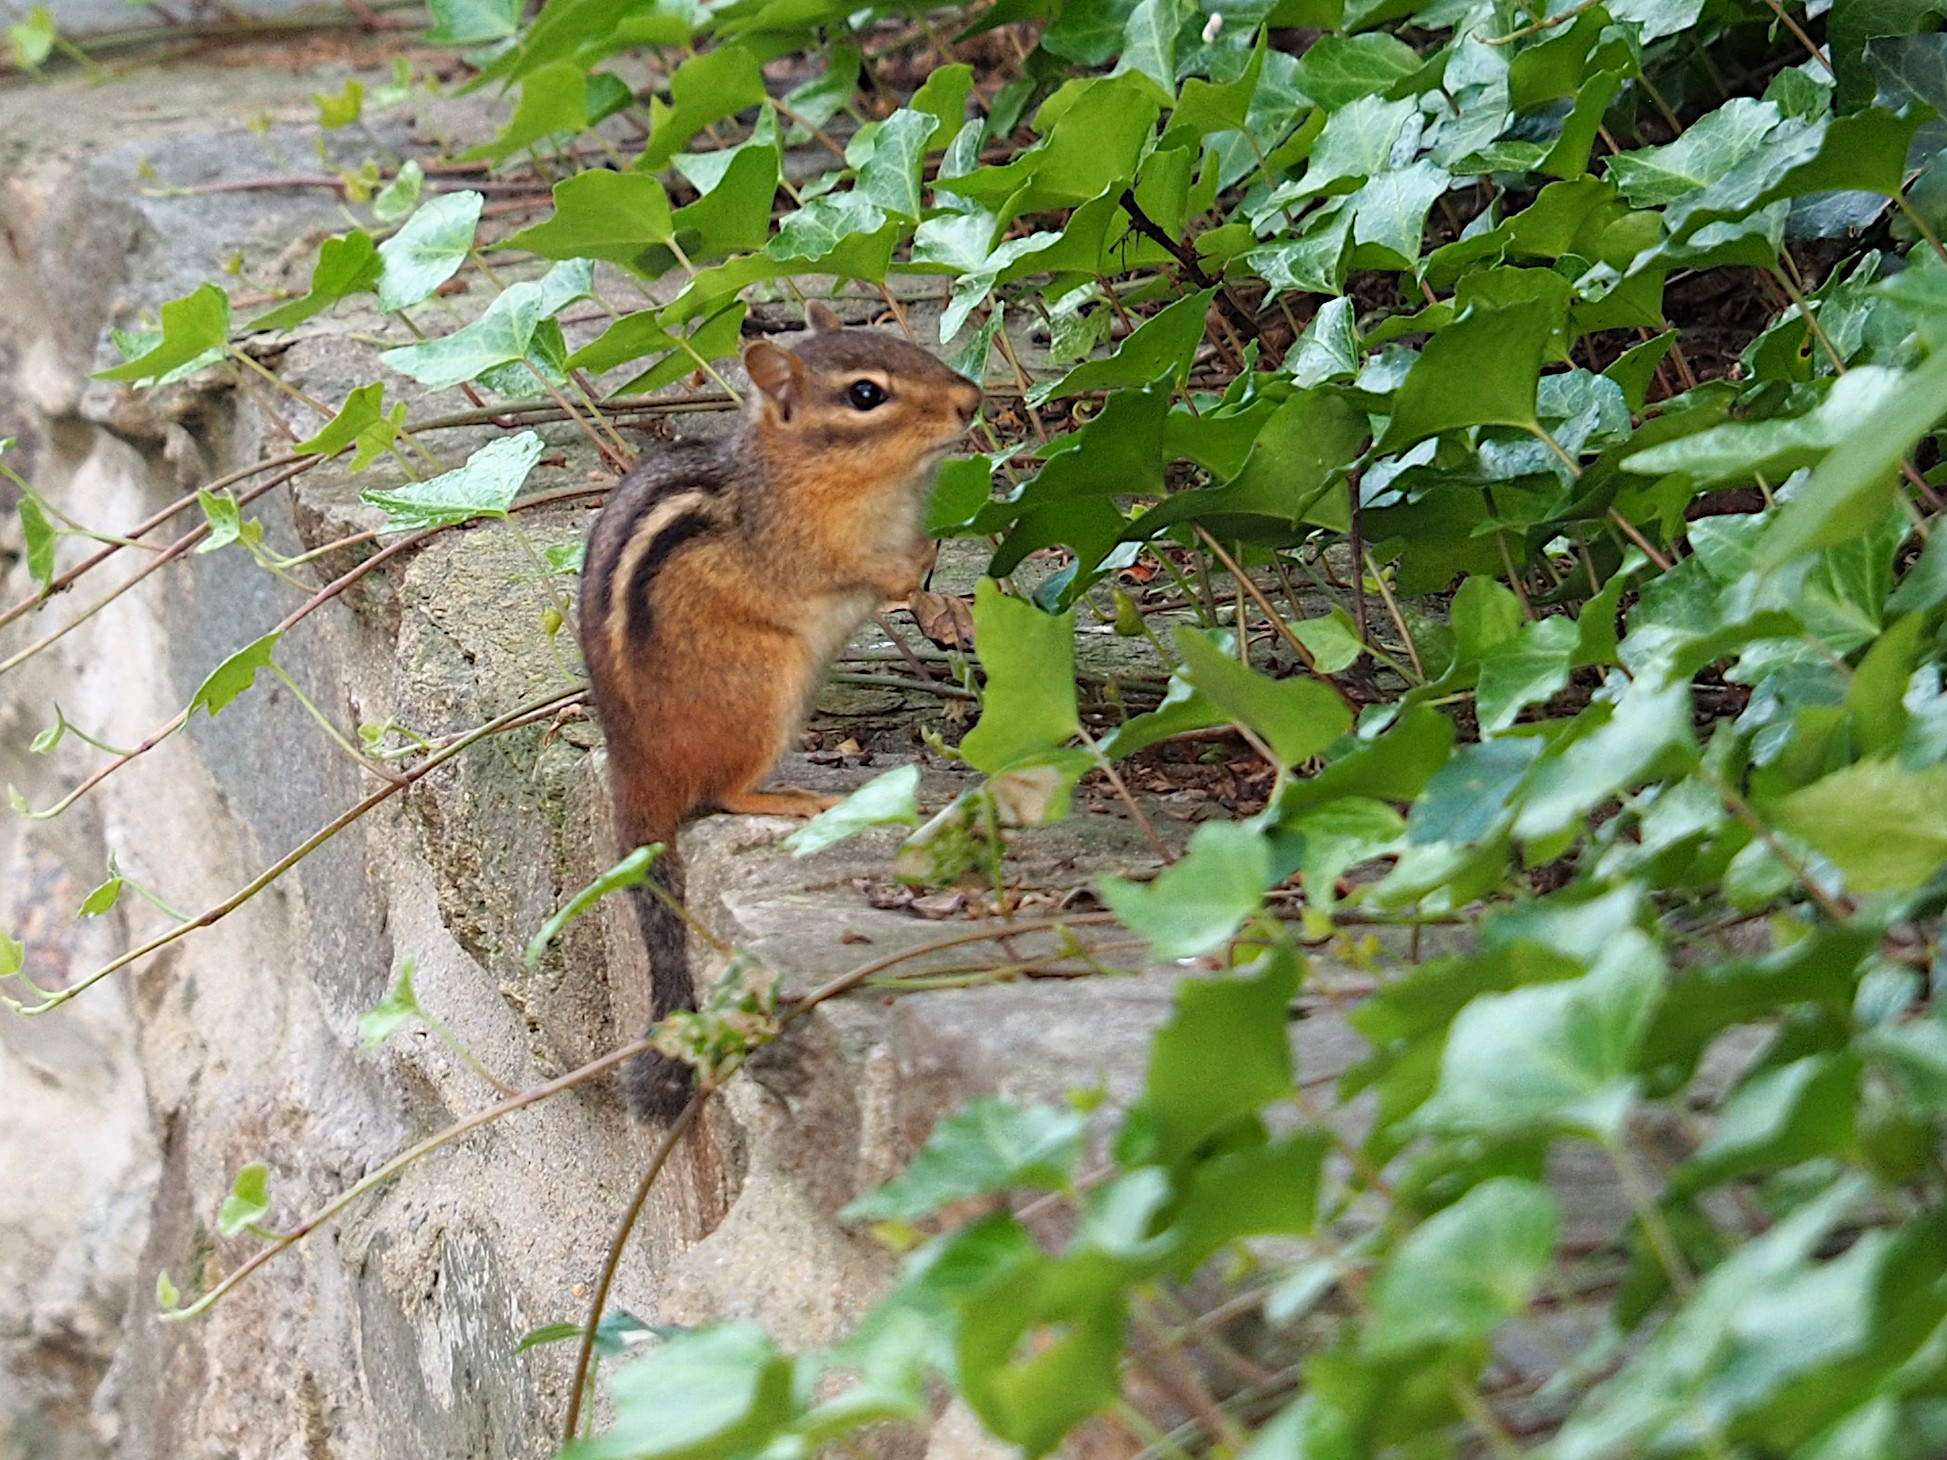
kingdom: Animalia
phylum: Chordata
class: Mammalia
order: Rodentia
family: Sciuridae
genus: Tamias
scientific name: Tamias striatus
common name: Eastern chipmunk
